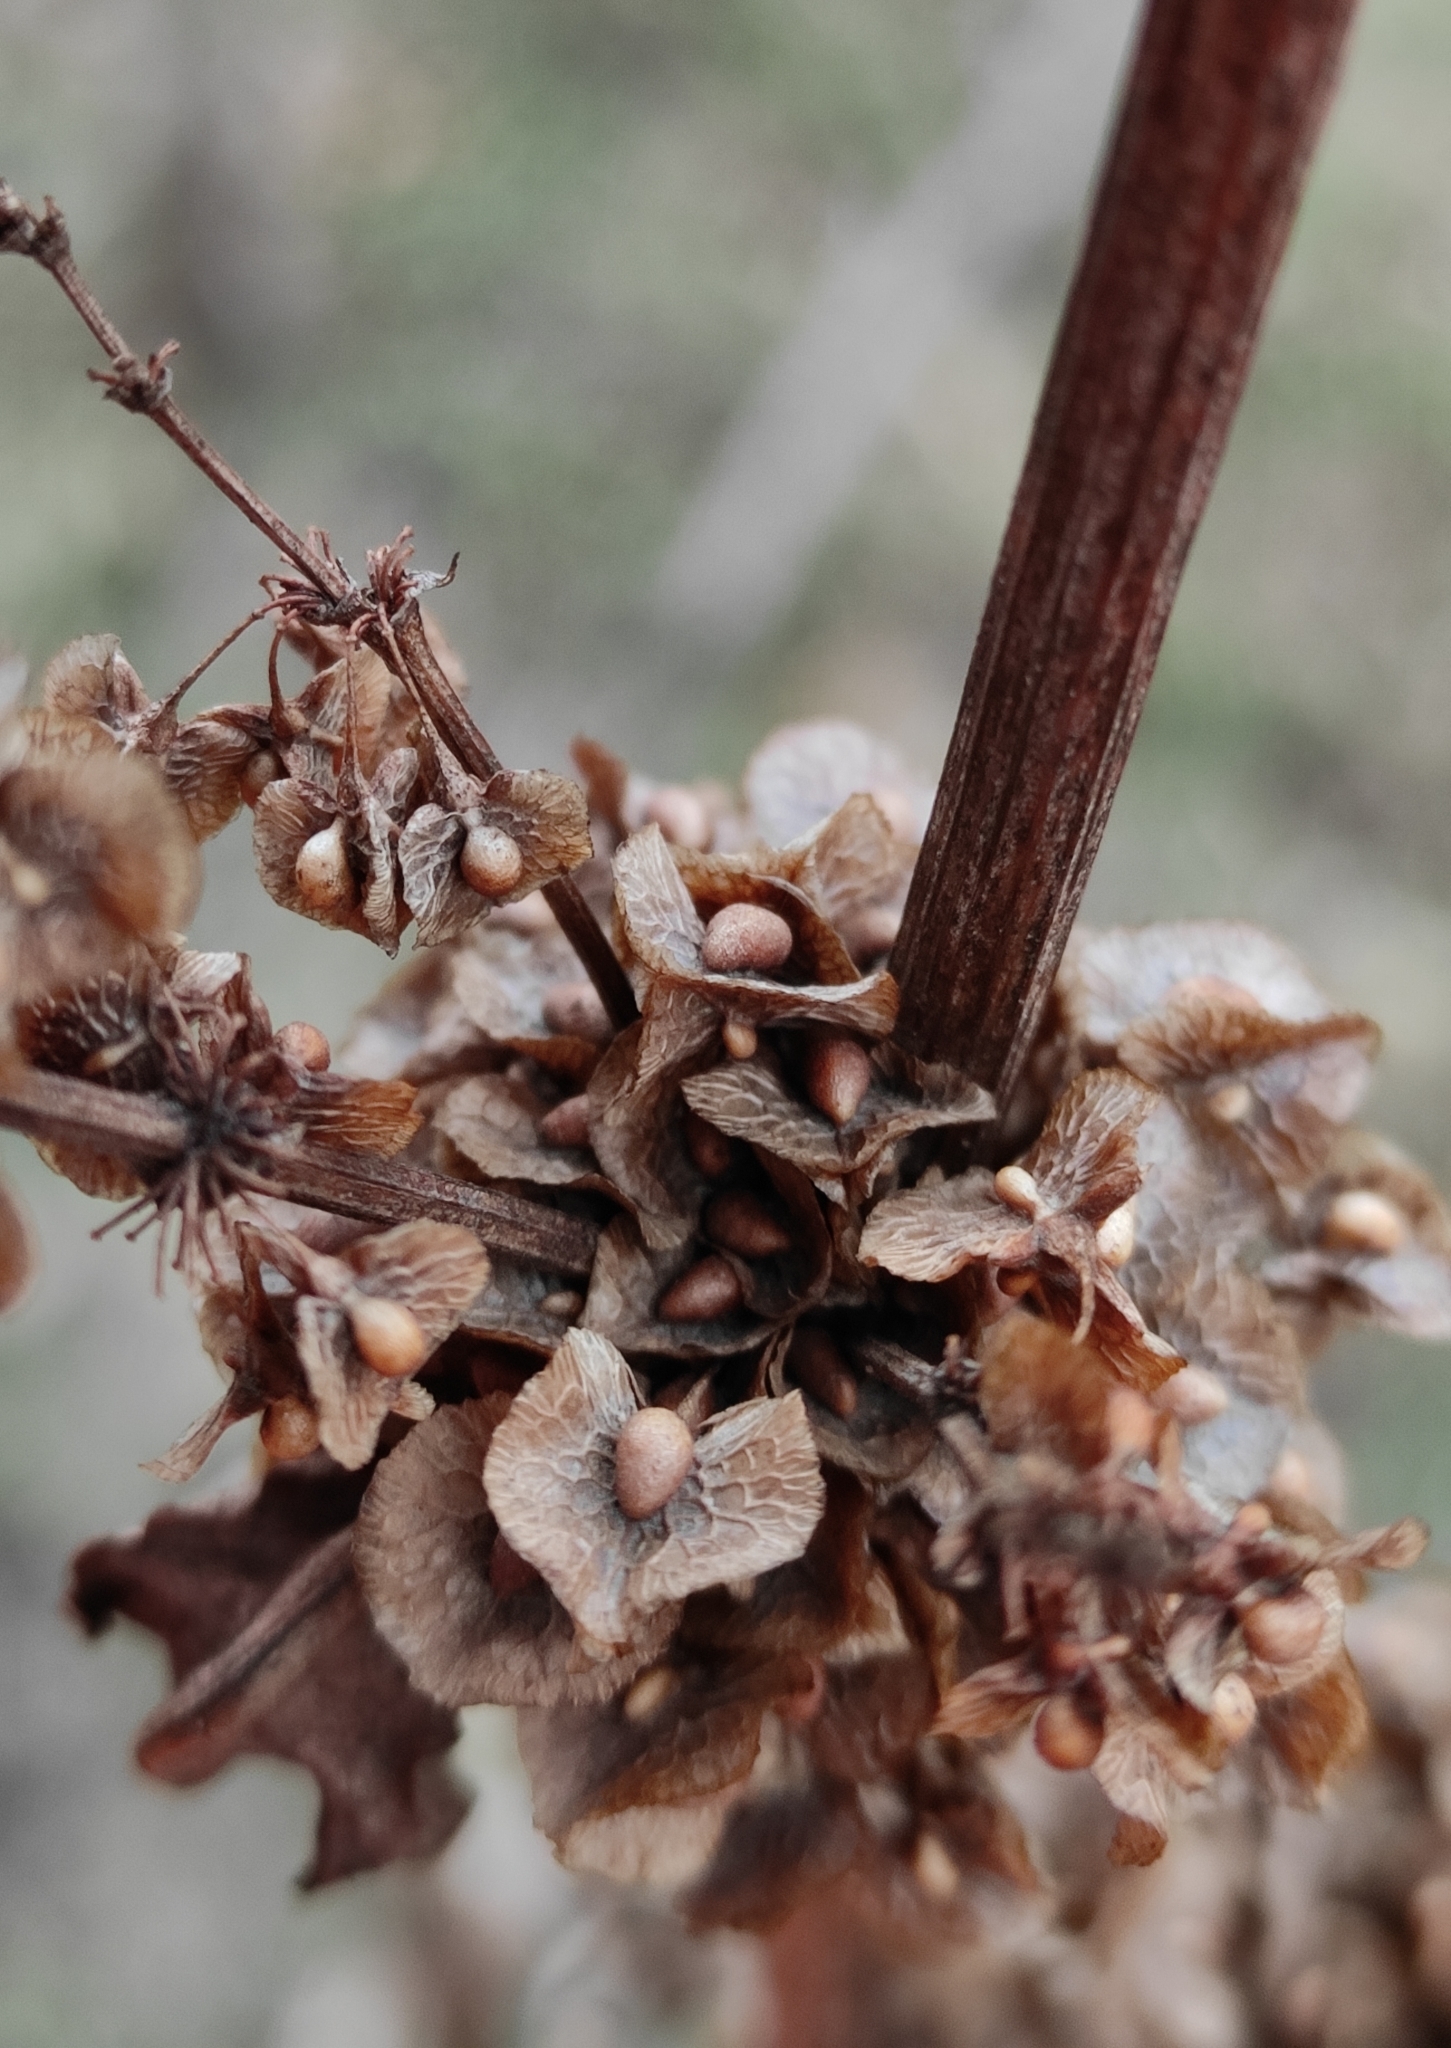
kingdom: Plantae
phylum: Tracheophyta
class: Magnoliopsida
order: Caryophyllales
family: Polygonaceae
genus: Rumex
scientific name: Rumex crispus
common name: Curled dock
